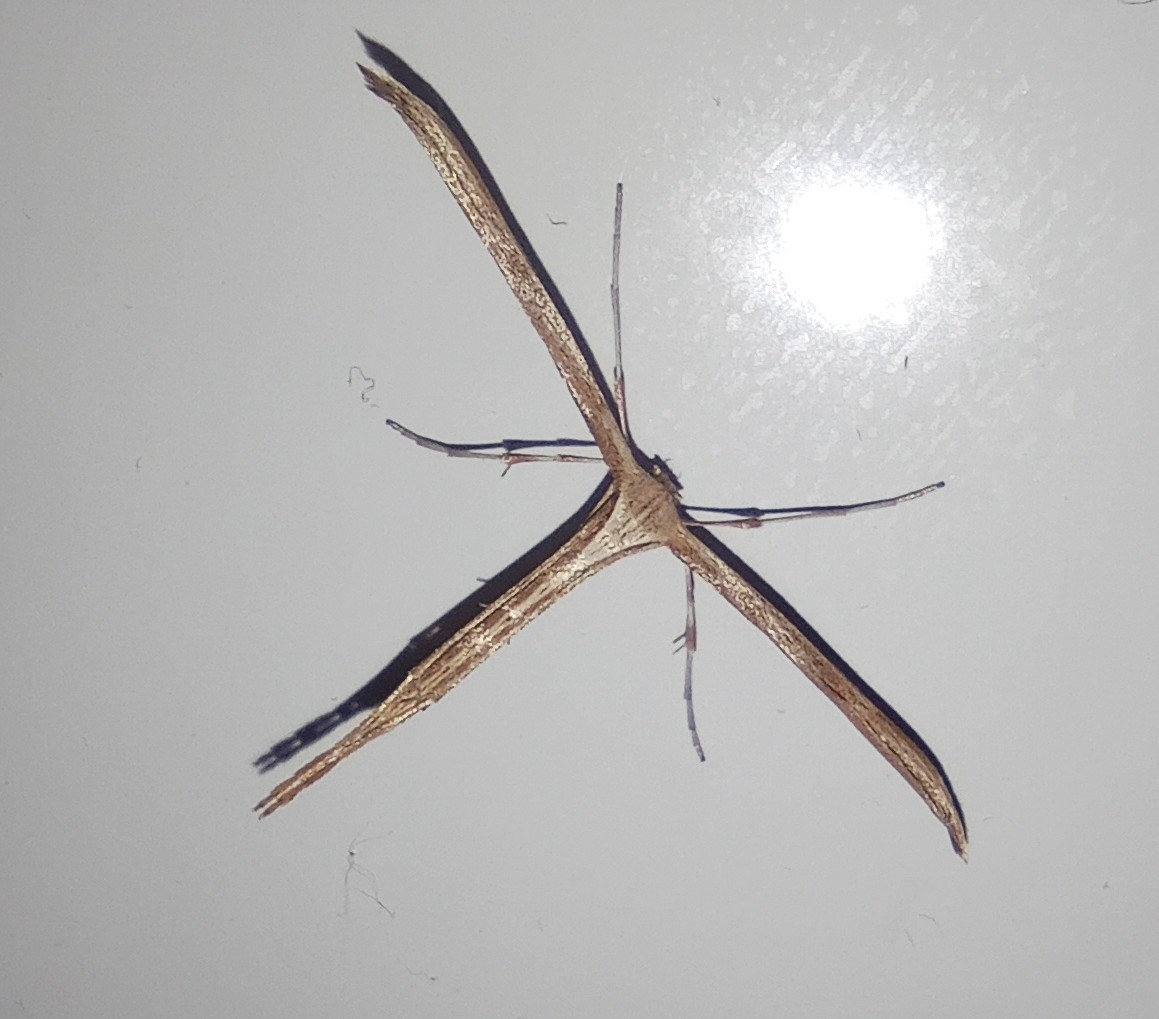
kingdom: Animalia
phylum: Arthropoda
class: Insecta
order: Lepidoptera
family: Pterophoridae
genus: Emmelina
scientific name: Emmelina monodactyla
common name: Common plume
